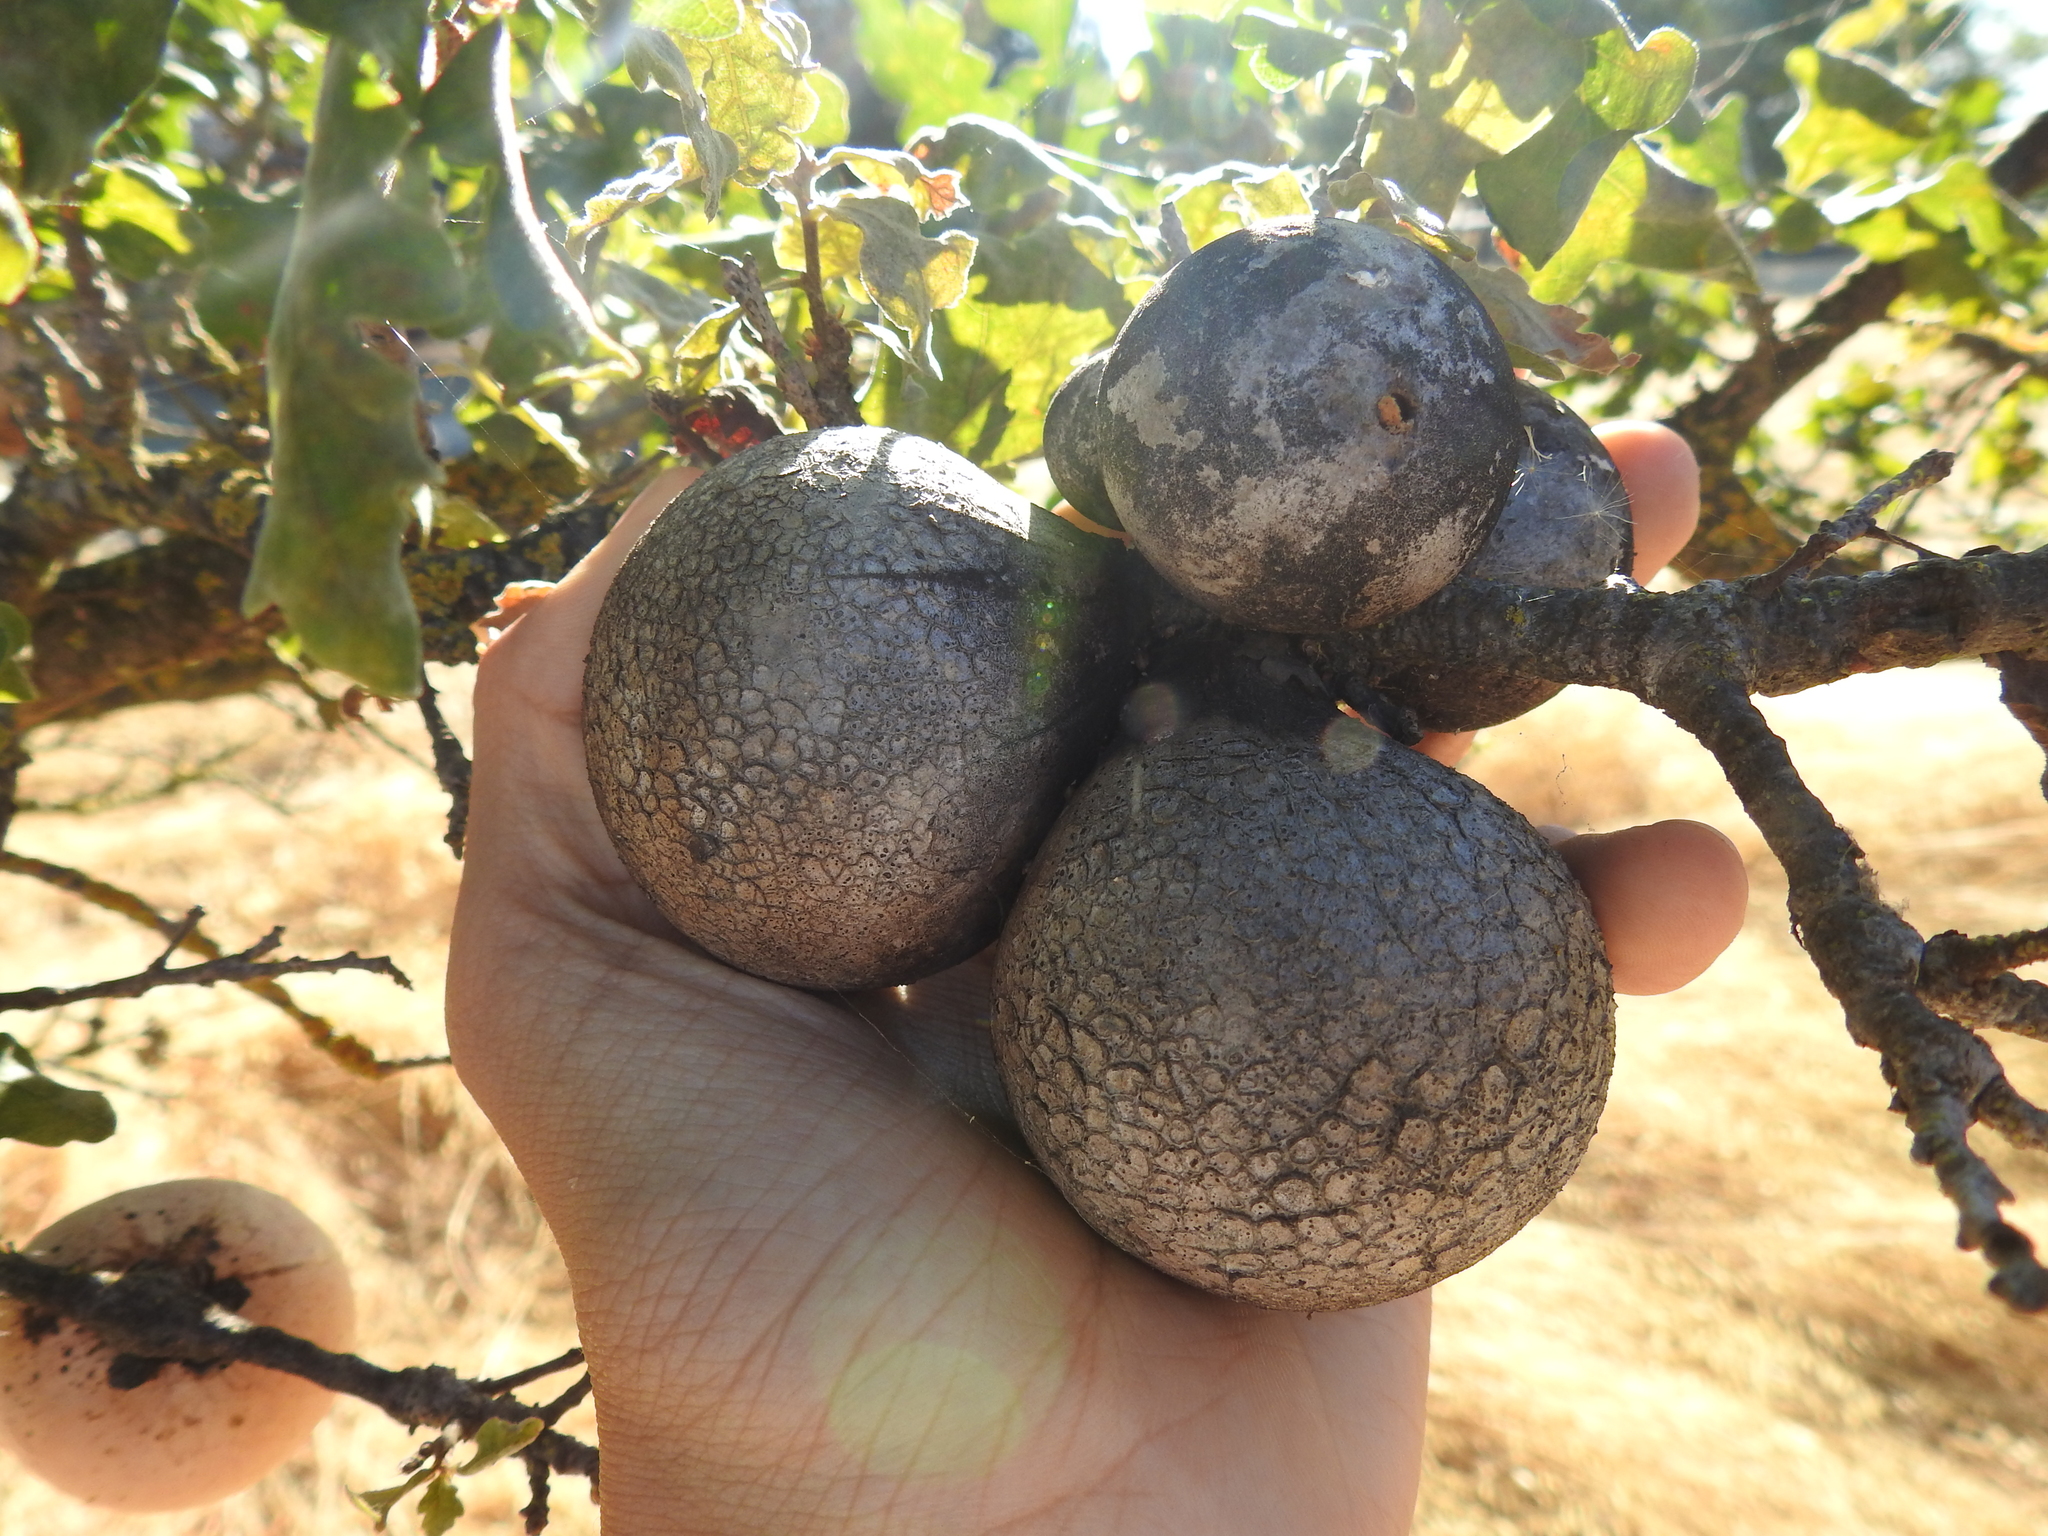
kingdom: Animalia
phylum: Arthropoda
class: Insecta
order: Hymenoptera
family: Cynipidae
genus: Andricus
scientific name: Andricus quercuscalifornicus
